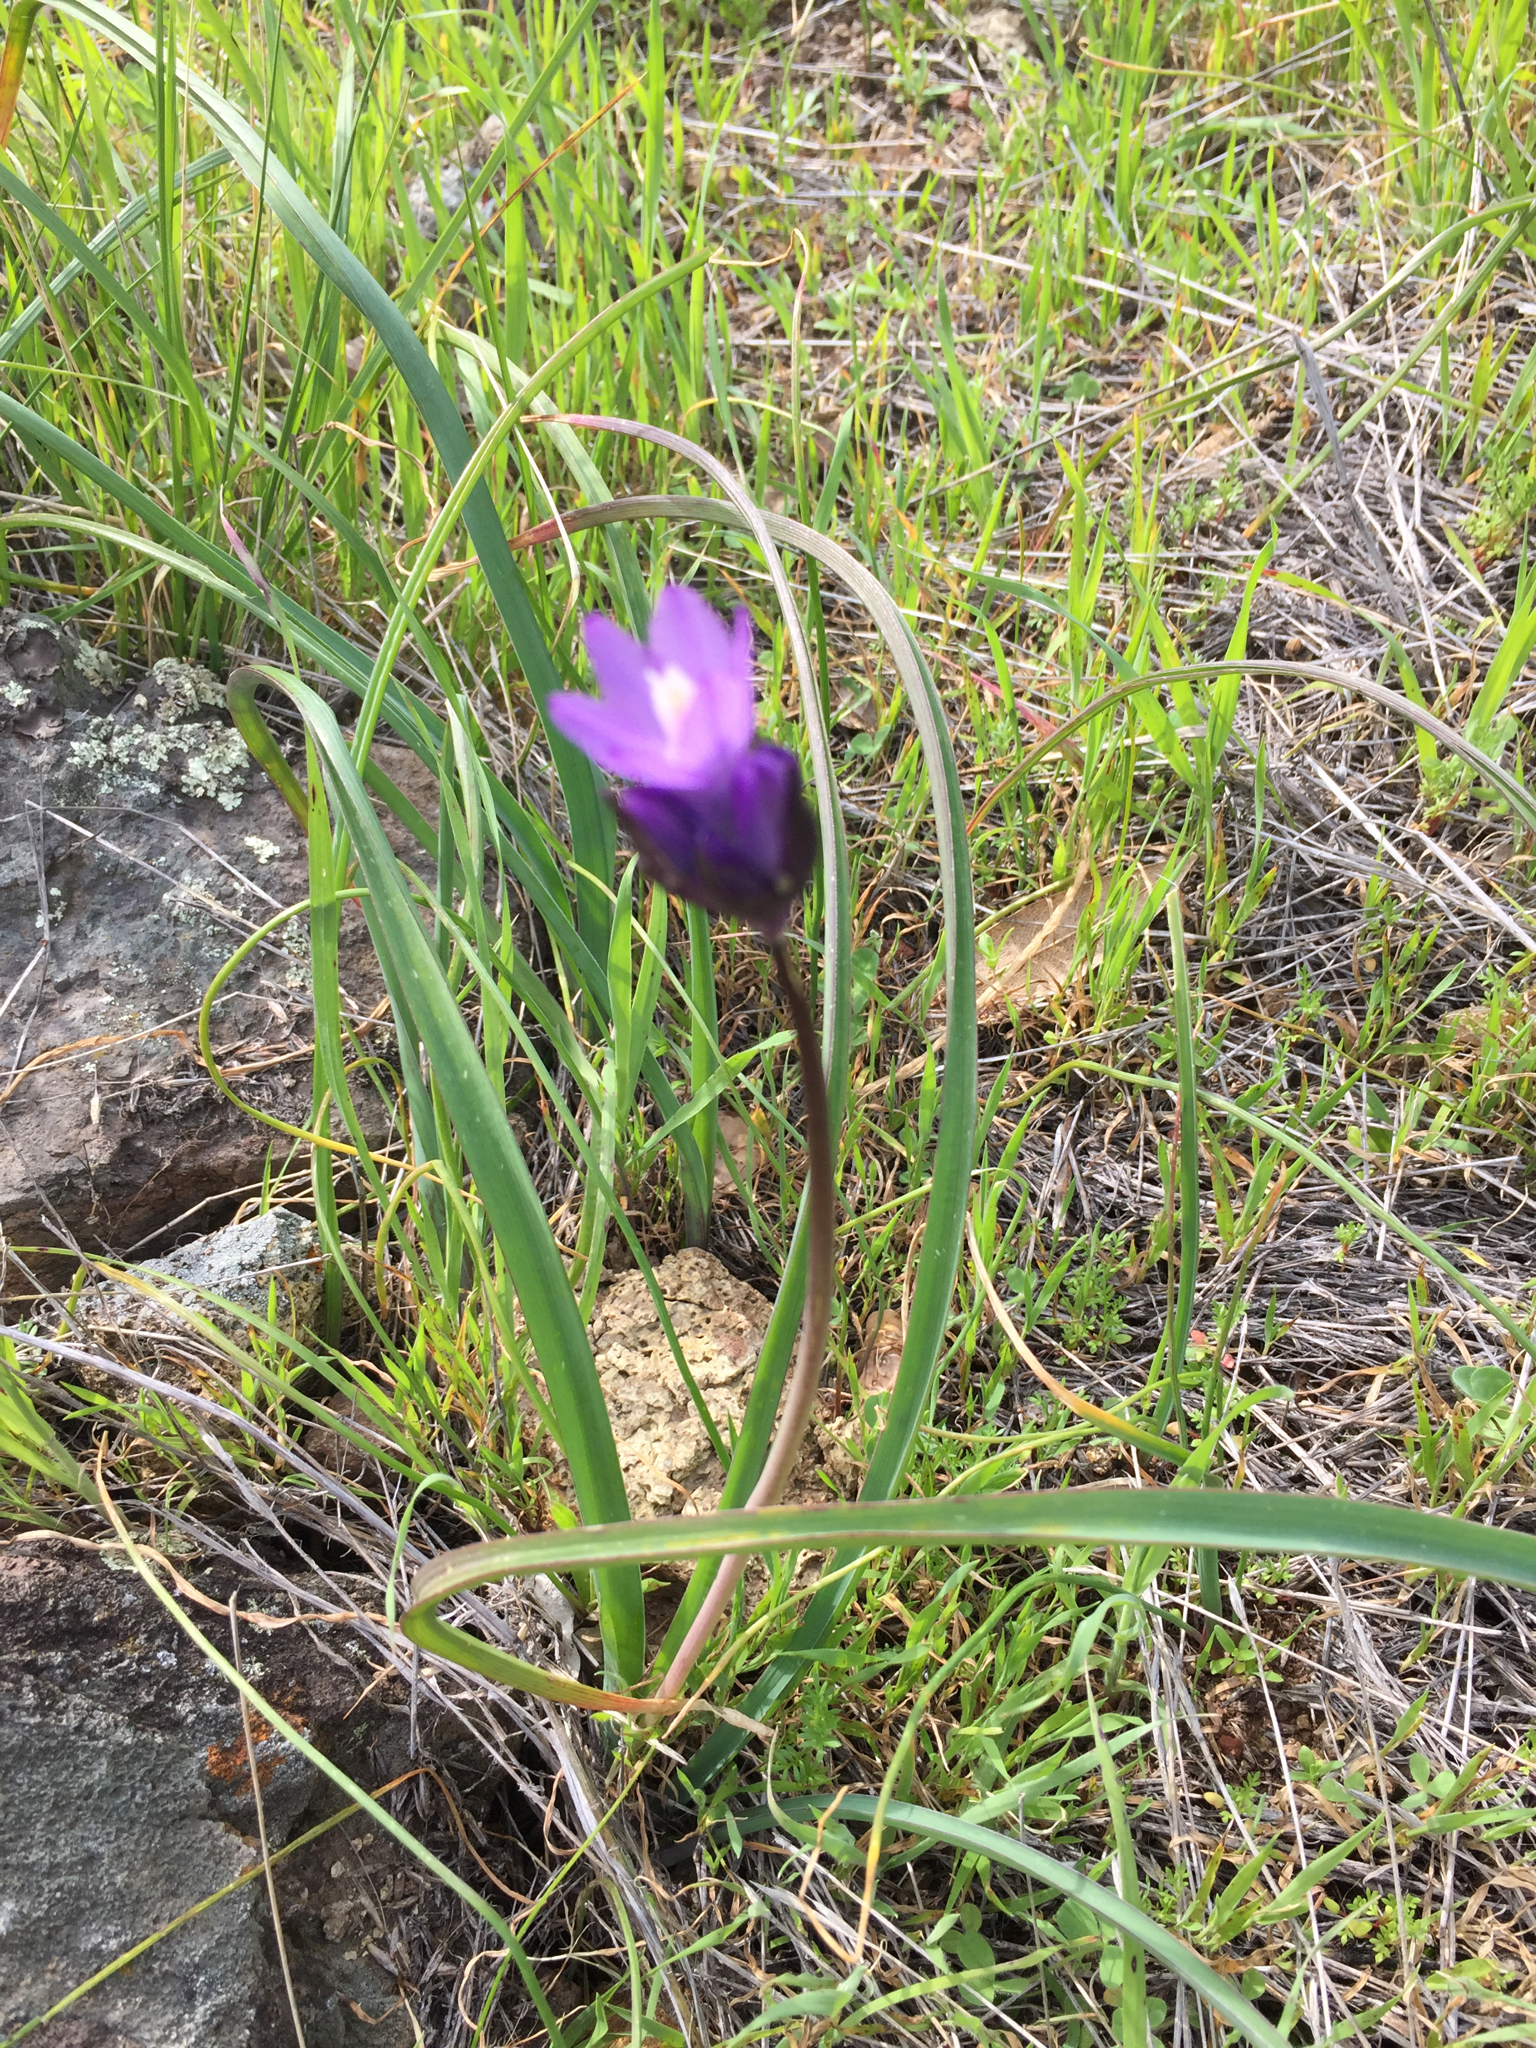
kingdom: Plantae
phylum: Tracheophyta
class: Liliopsida
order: Asparagales
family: Asparagaceae
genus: Dipterostemon
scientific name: Dipterostemon capitatus
